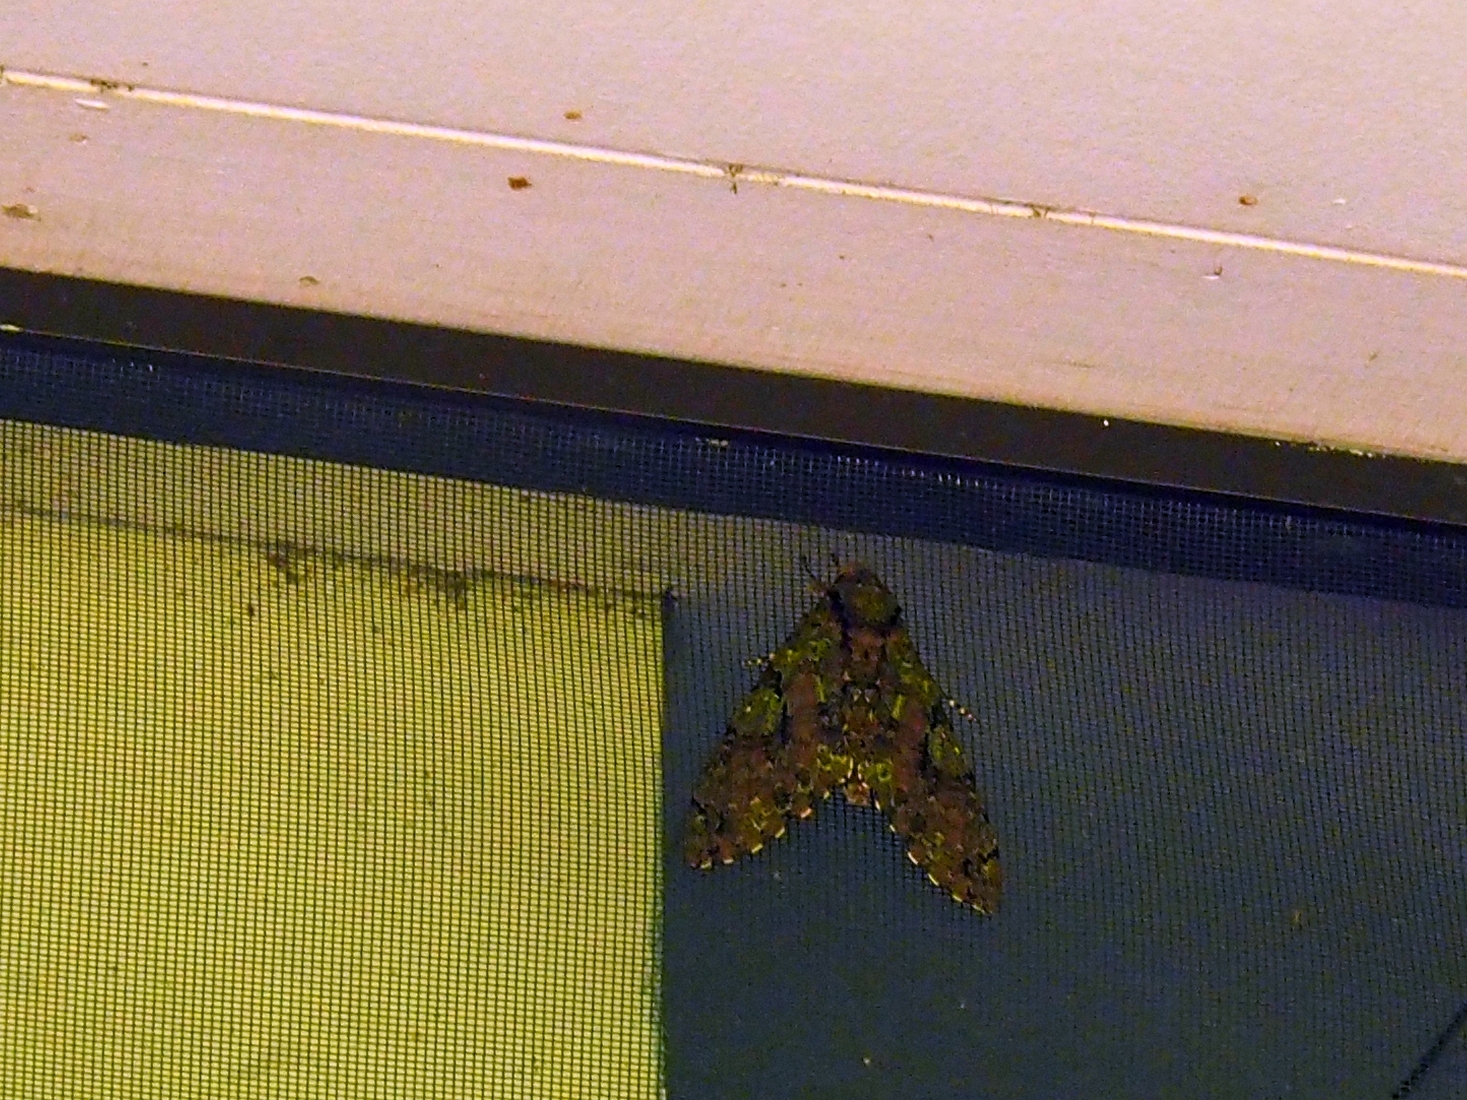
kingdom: Animalia
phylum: Arthropoda
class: Insecta
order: Lepidoptera
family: Sphingidae
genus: Cocytius
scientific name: Cocytius beelzebuth
